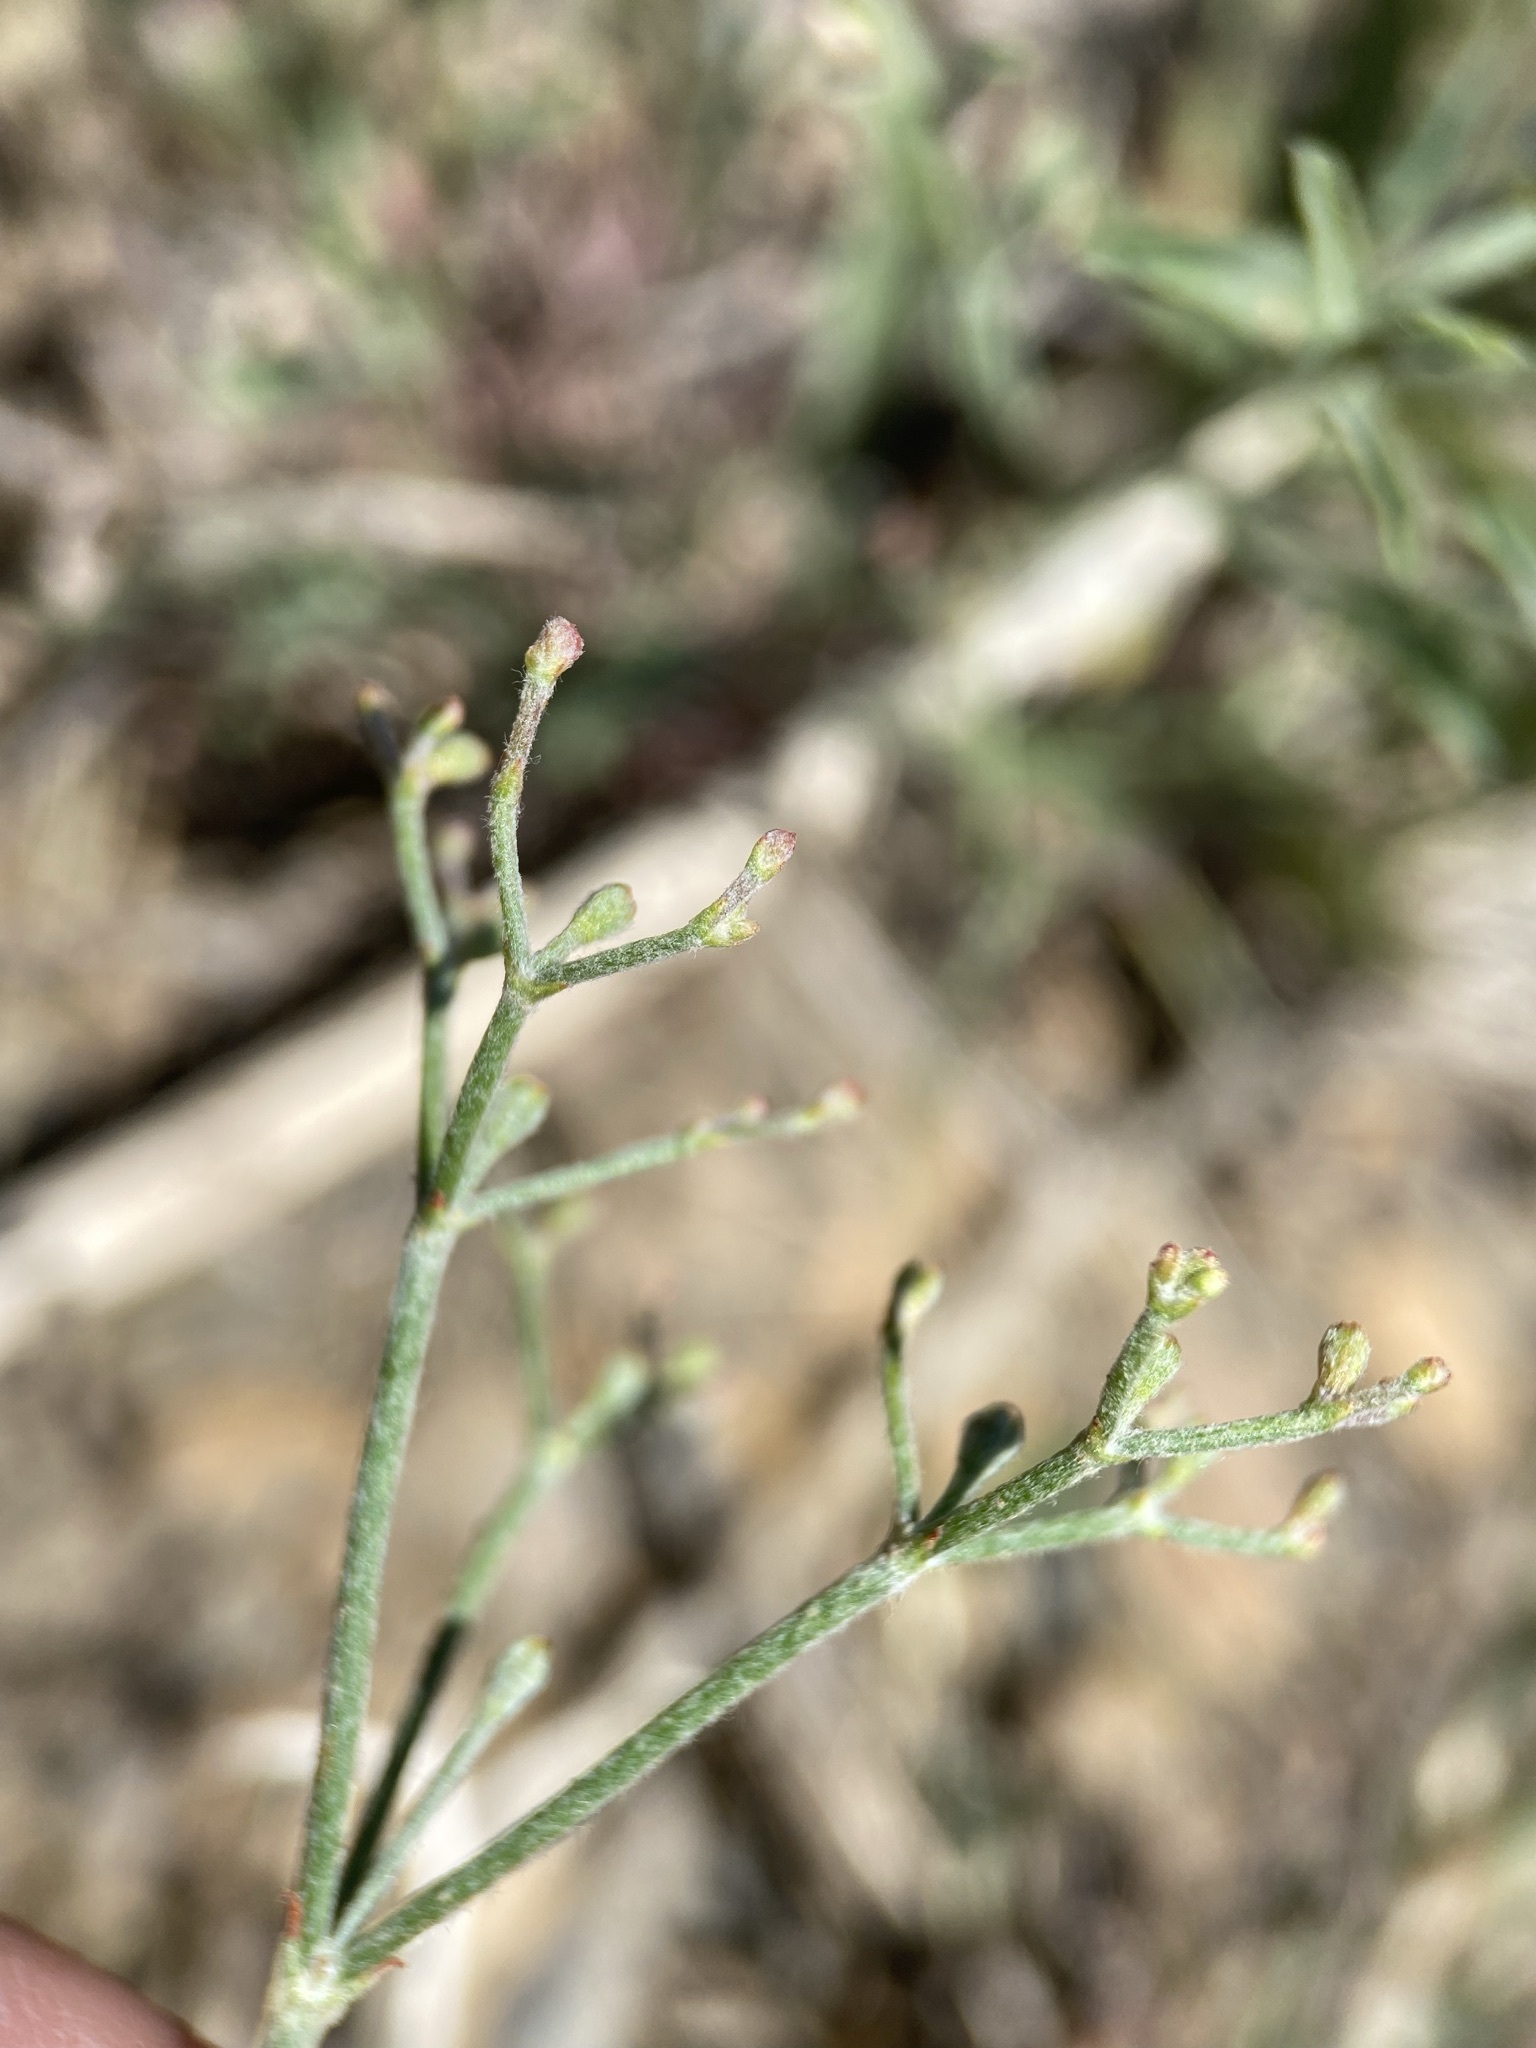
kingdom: Plantae
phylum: Tracheophyta
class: Magnoliopsida
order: Caryophyllales
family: Polygonaceae
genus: Eriogonum
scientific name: Eriogonum microtheca
